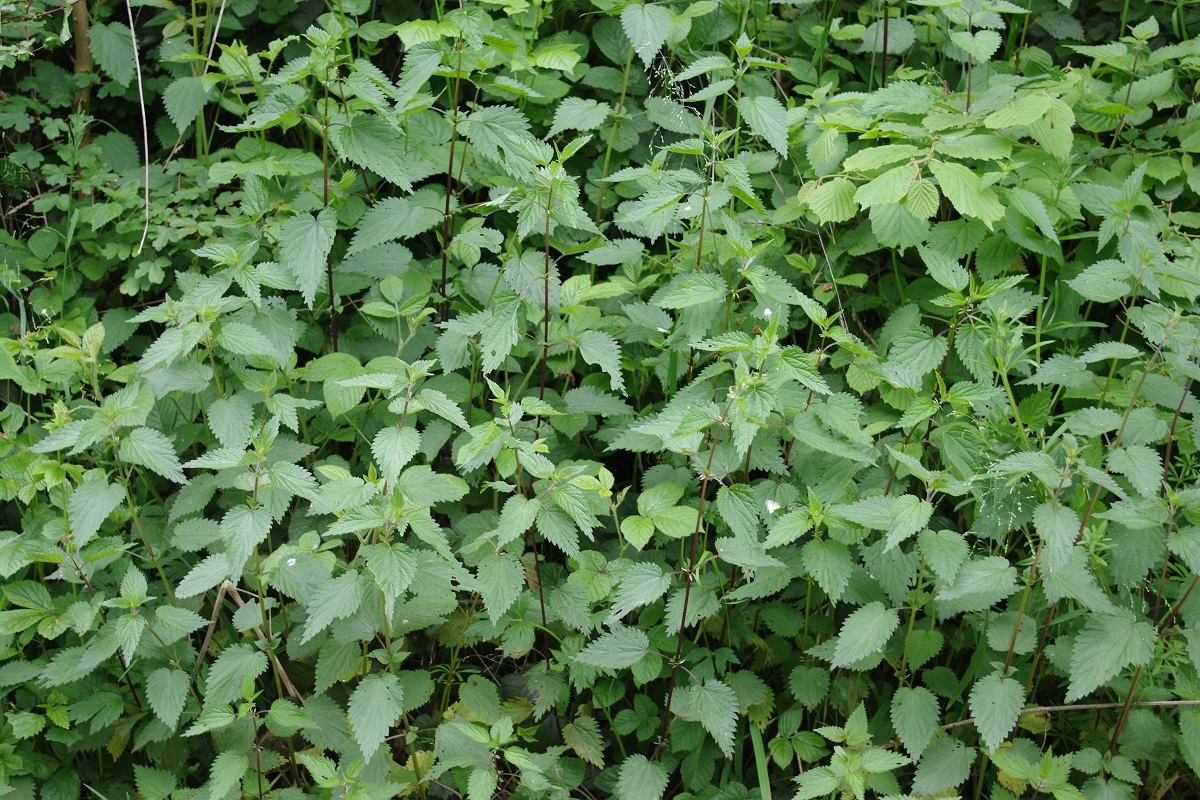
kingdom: Plantae
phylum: Tracheophyta
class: Magnoliopsida
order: Rosales
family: Urticaceae
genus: Urtica
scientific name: Urtica dioica
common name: Common nettle
